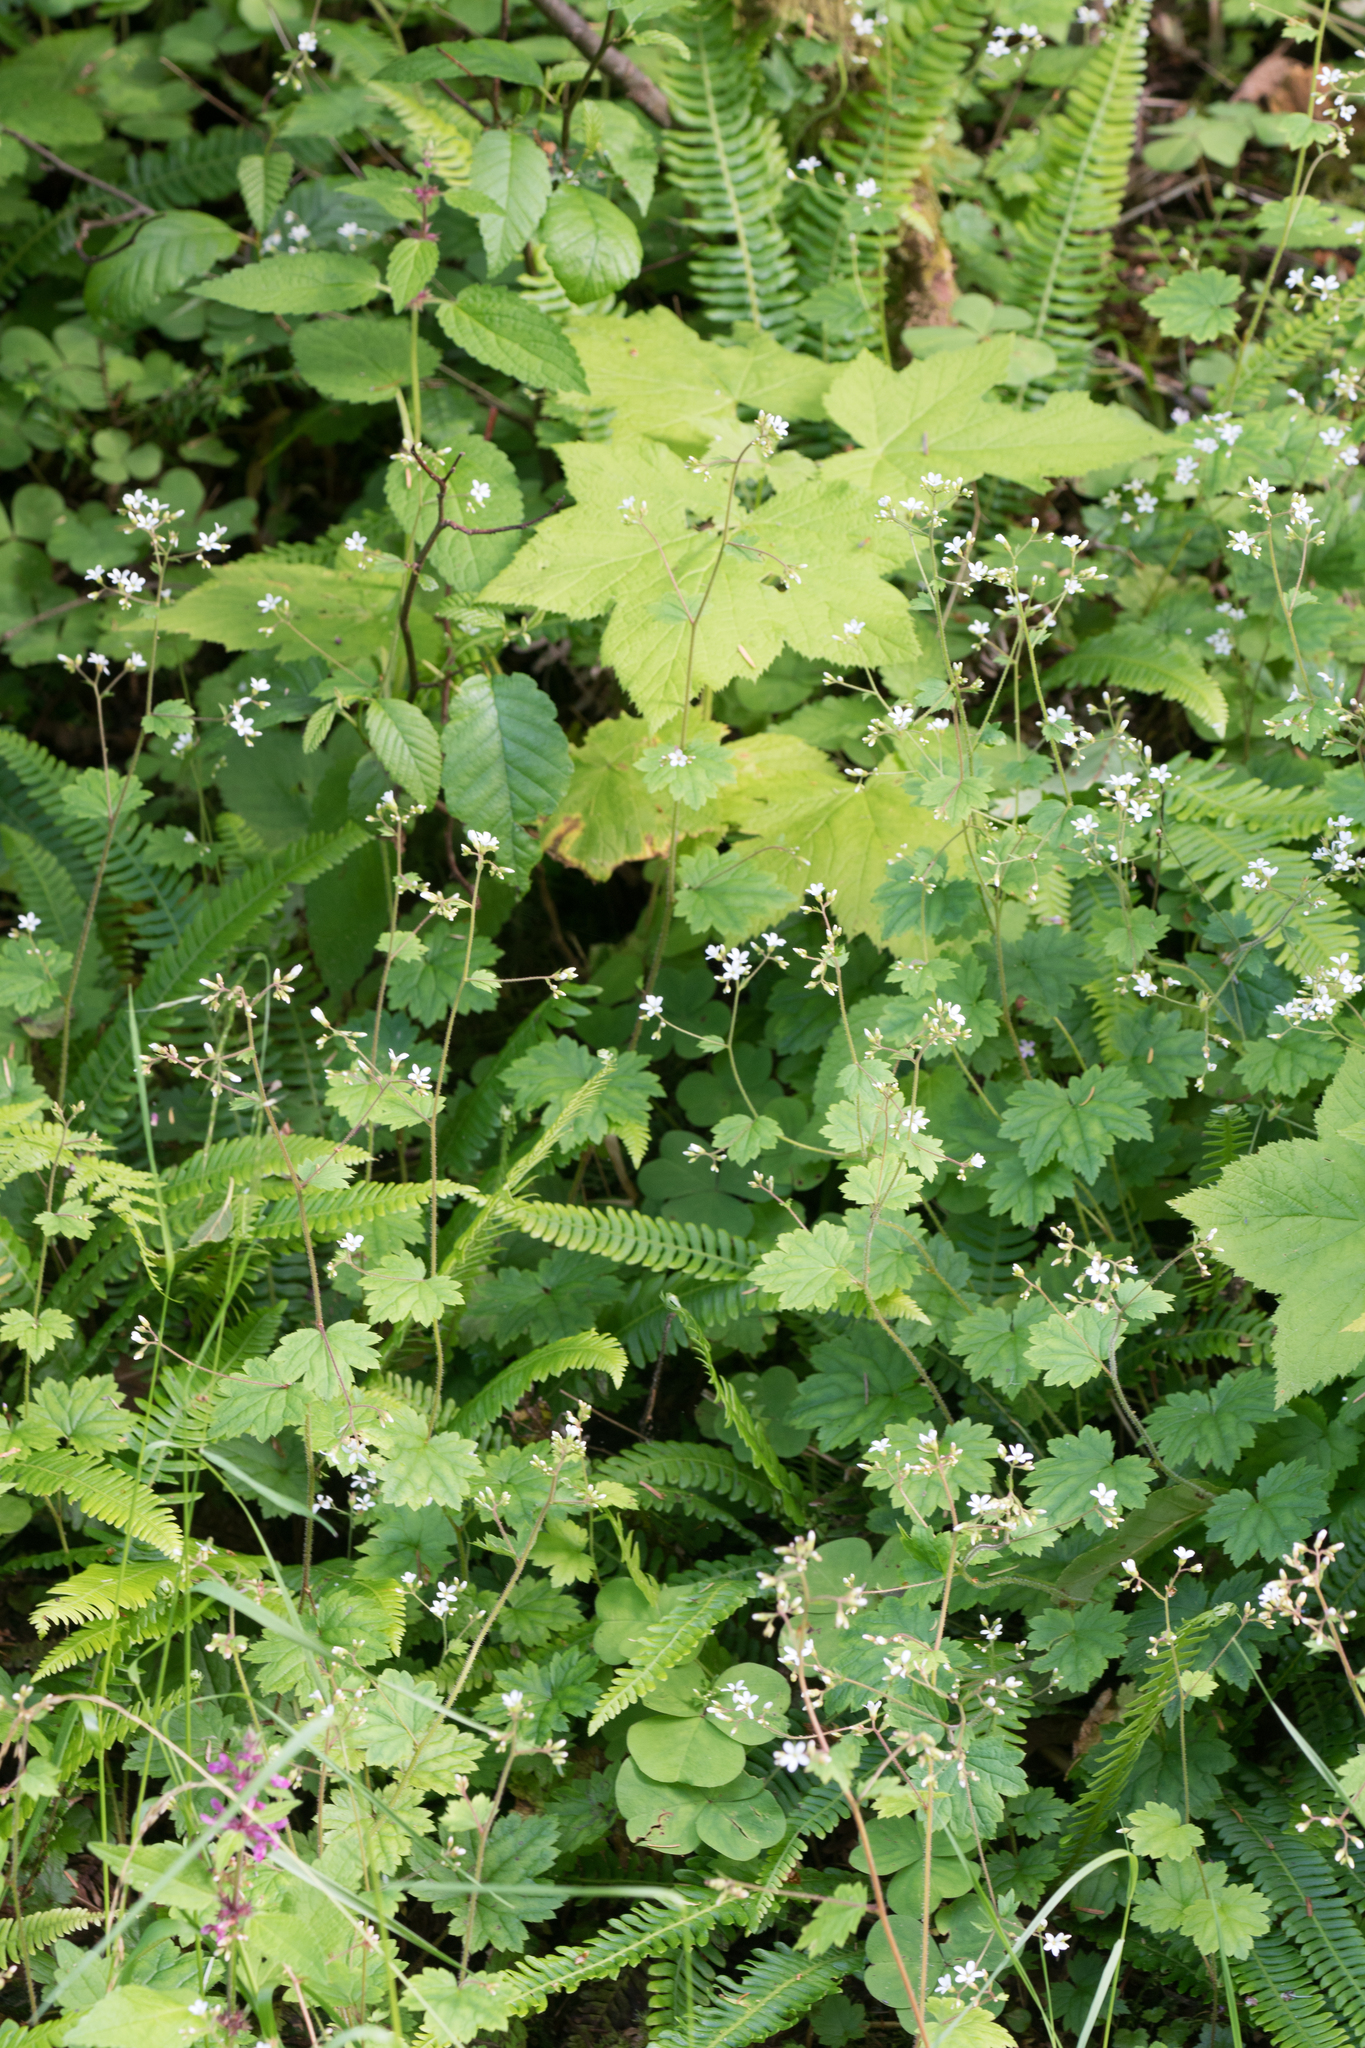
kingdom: Plantae
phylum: Tracheophyta
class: Magnoliopsida
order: Saxifragales
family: Saxifragaceae
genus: Boykinia
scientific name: Boykinia occidentalis
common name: Coast boykinia
